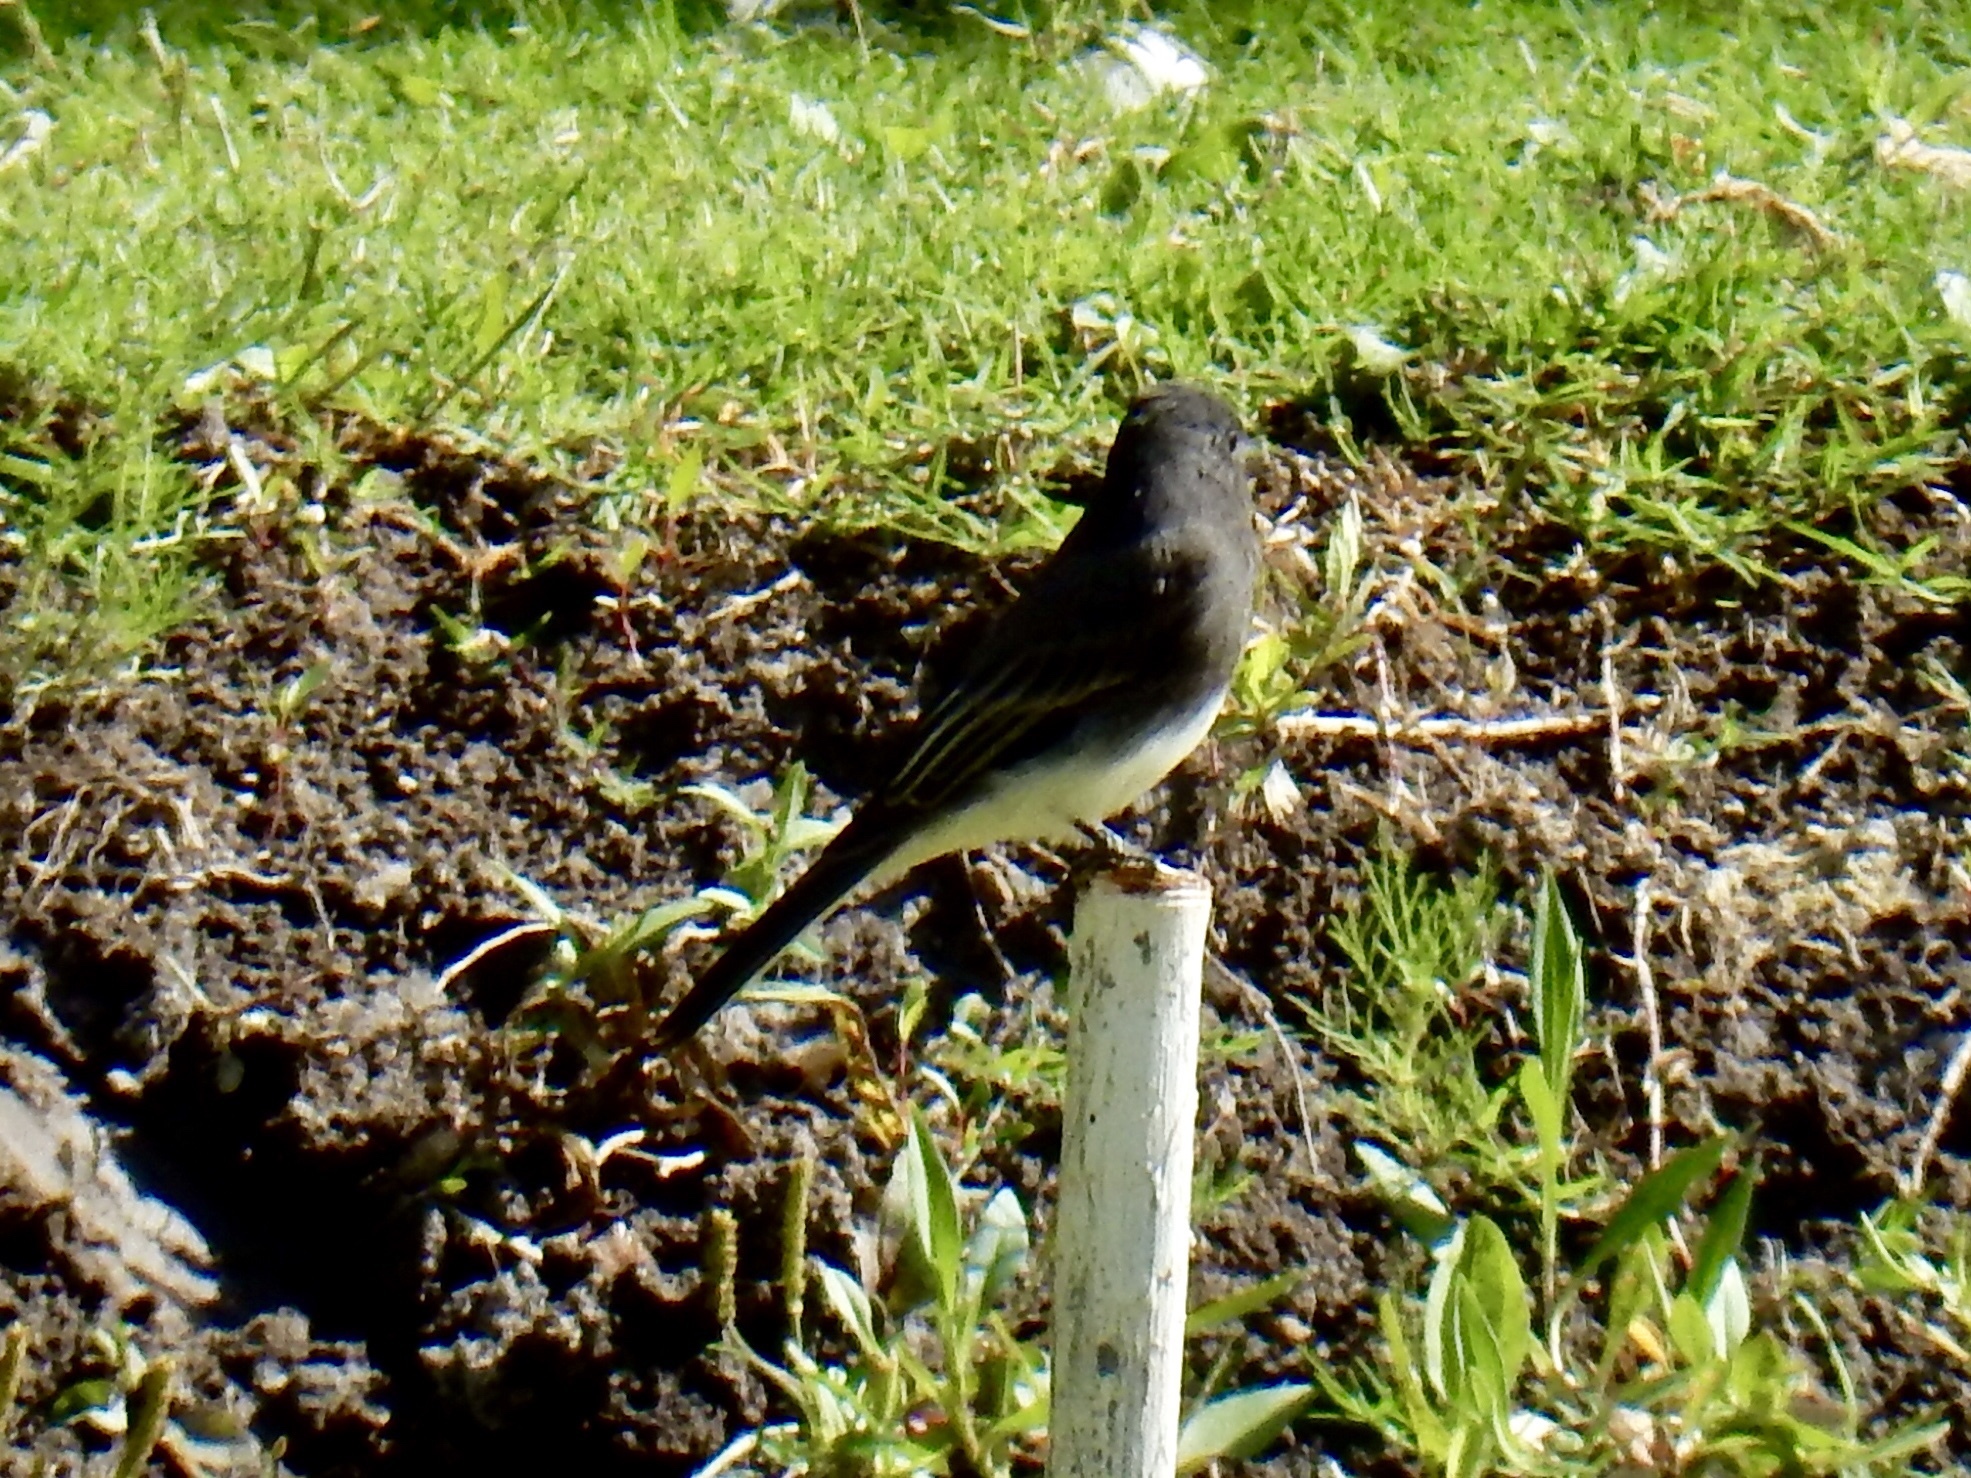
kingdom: Animalia
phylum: Chordata
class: Aves
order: Passeriformes
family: Tyrannidae
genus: Sayornis
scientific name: Sayornis nigricans
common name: Black phoebe
